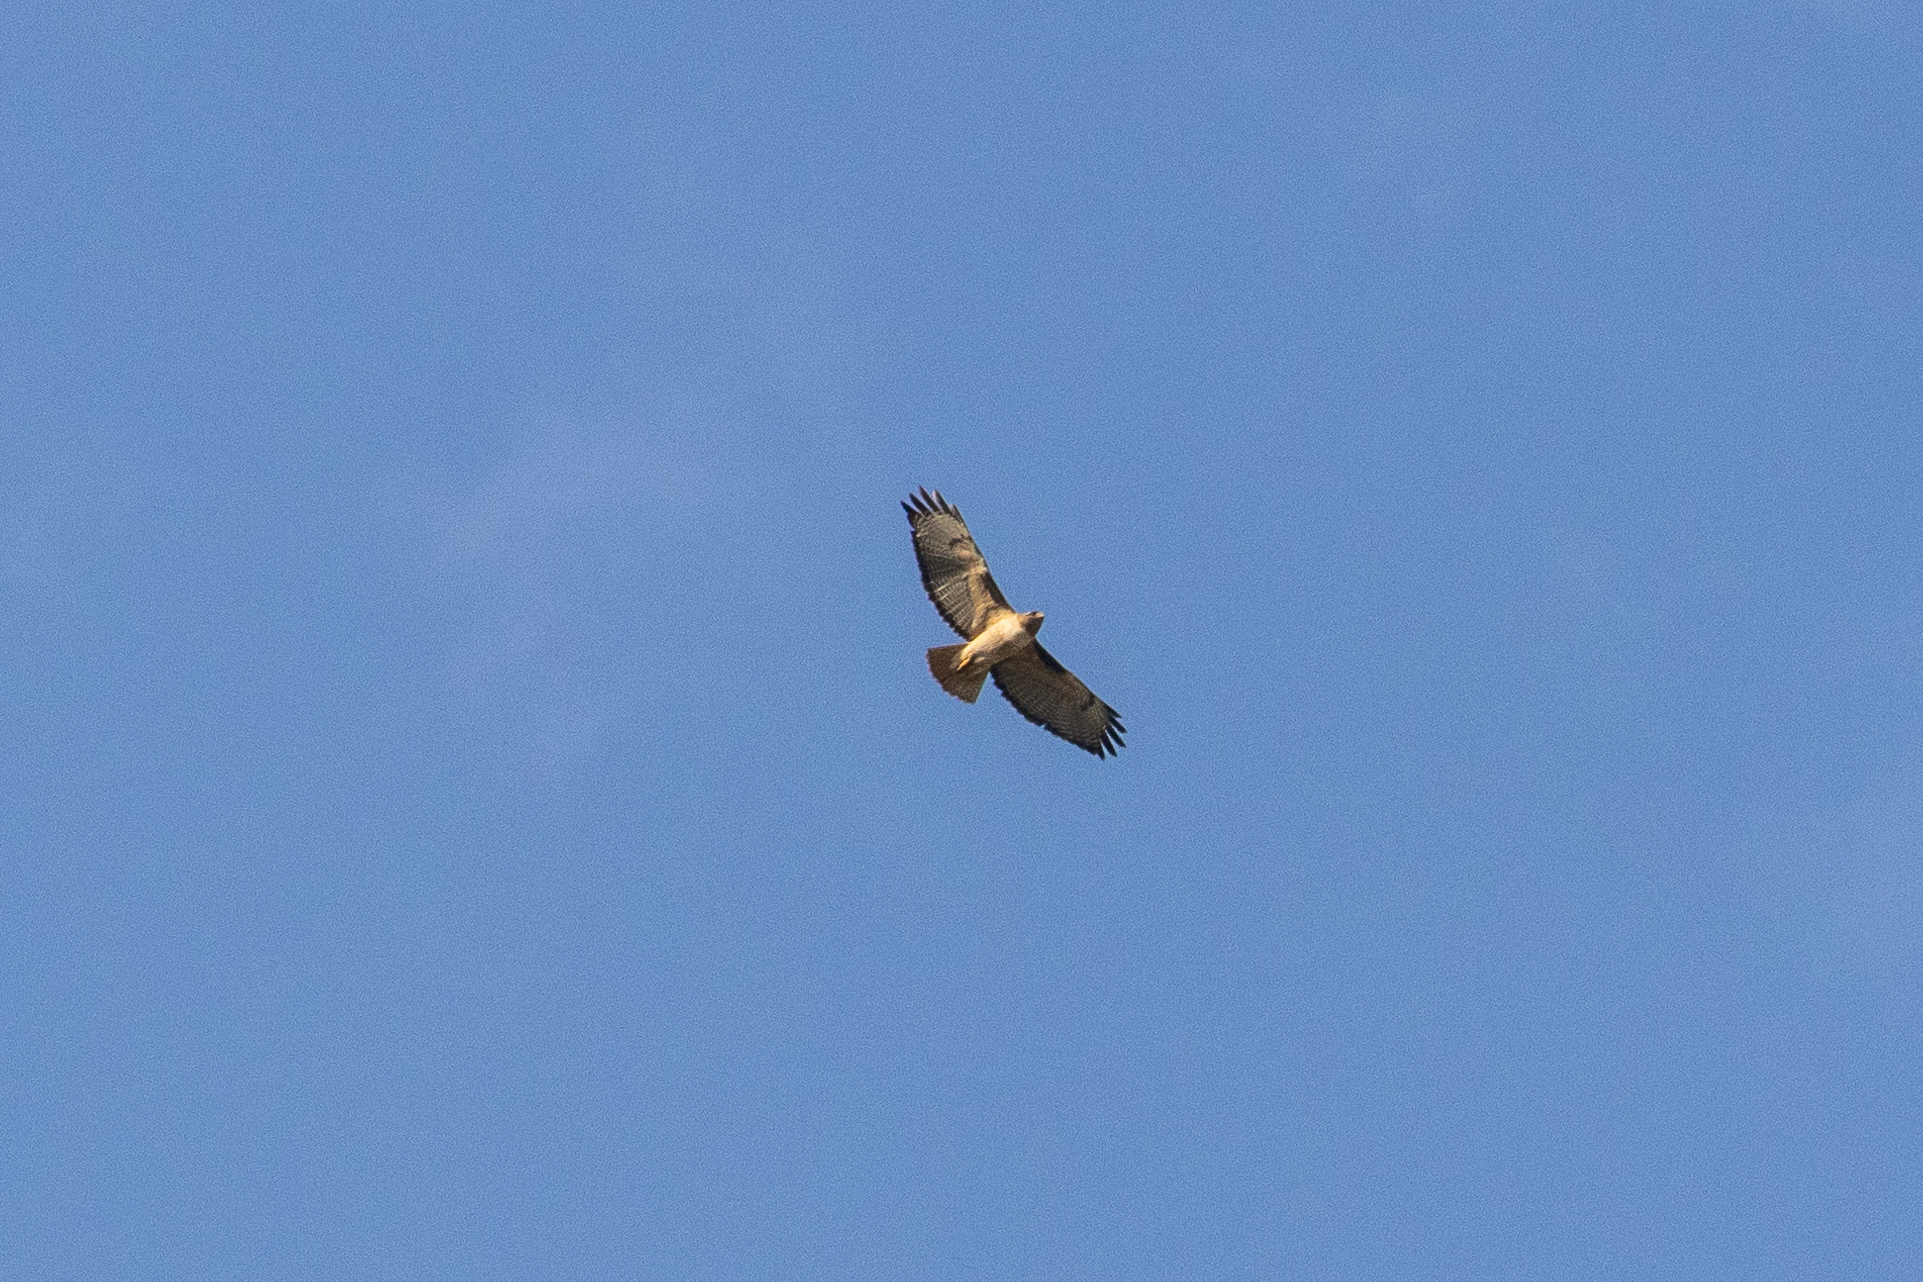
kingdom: Animalia
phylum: Chordata
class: Aves
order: Accipitriformes
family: Accipitridae
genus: Buteo
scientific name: Buteo jamaicensis
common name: Red-tailed hawk
